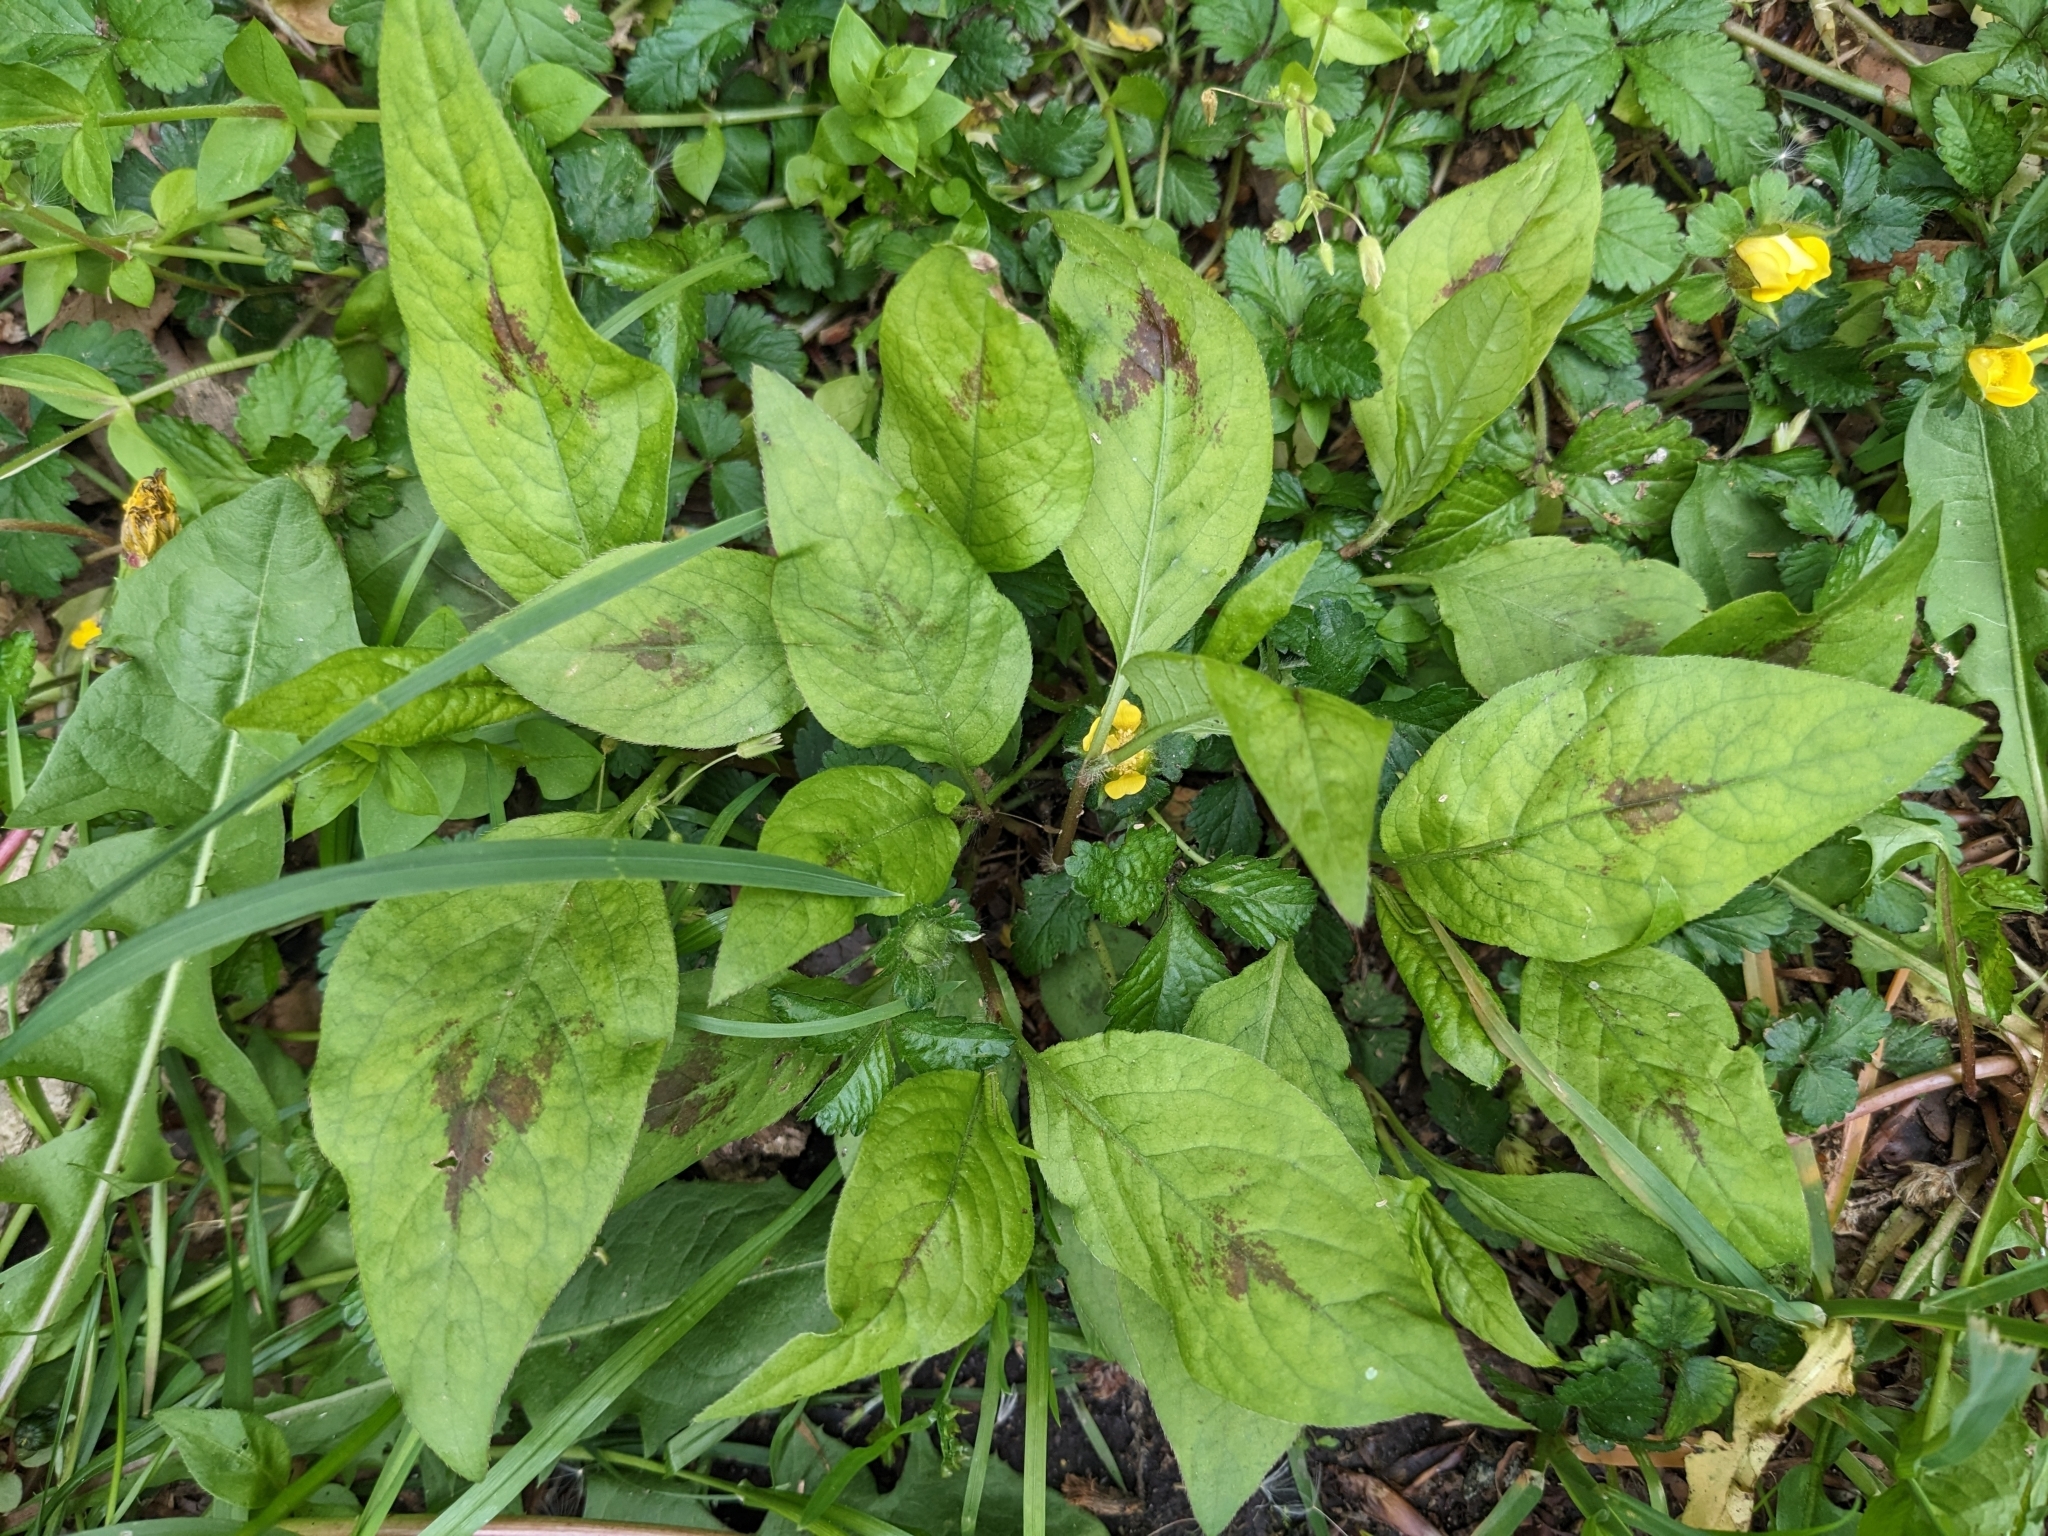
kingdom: Plantae
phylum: Tracheophyta
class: Magnoliopsida
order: Caryophyllales
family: Polygonaceae
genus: Persicaria
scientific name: Persicaria virginiana
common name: Jumpseed
